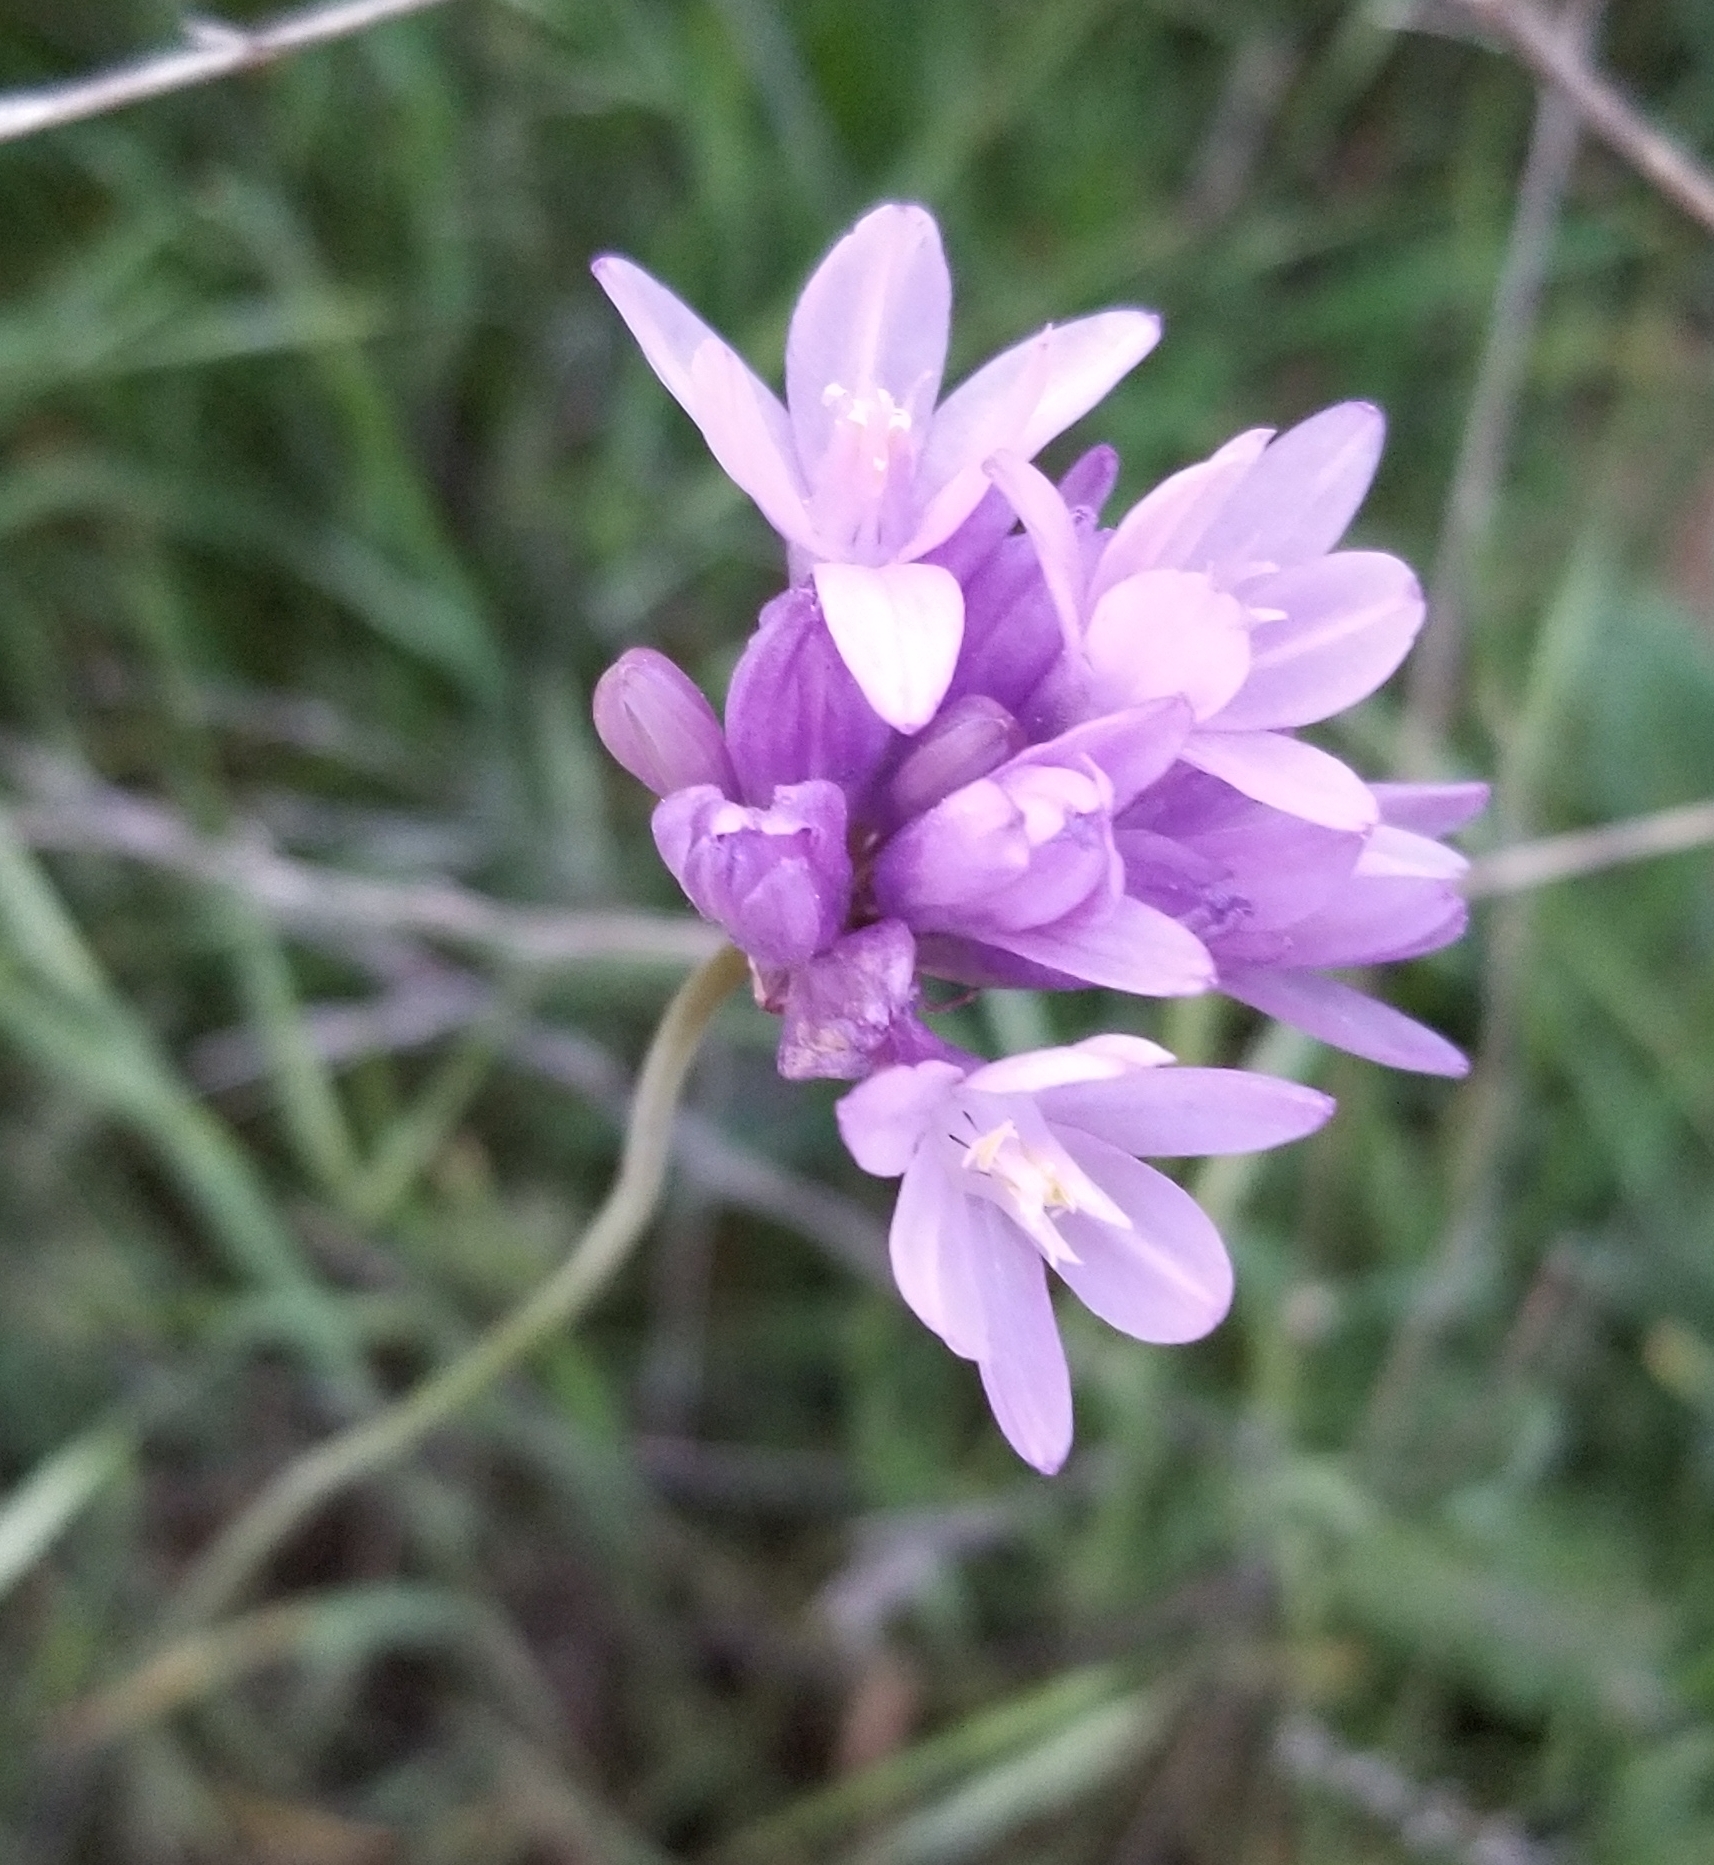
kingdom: Plantae
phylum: Tracheophyta
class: Liliopsida
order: Asparagales
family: Asparagaceae
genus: Dipterostemon
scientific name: Dipterostemon capitatus
